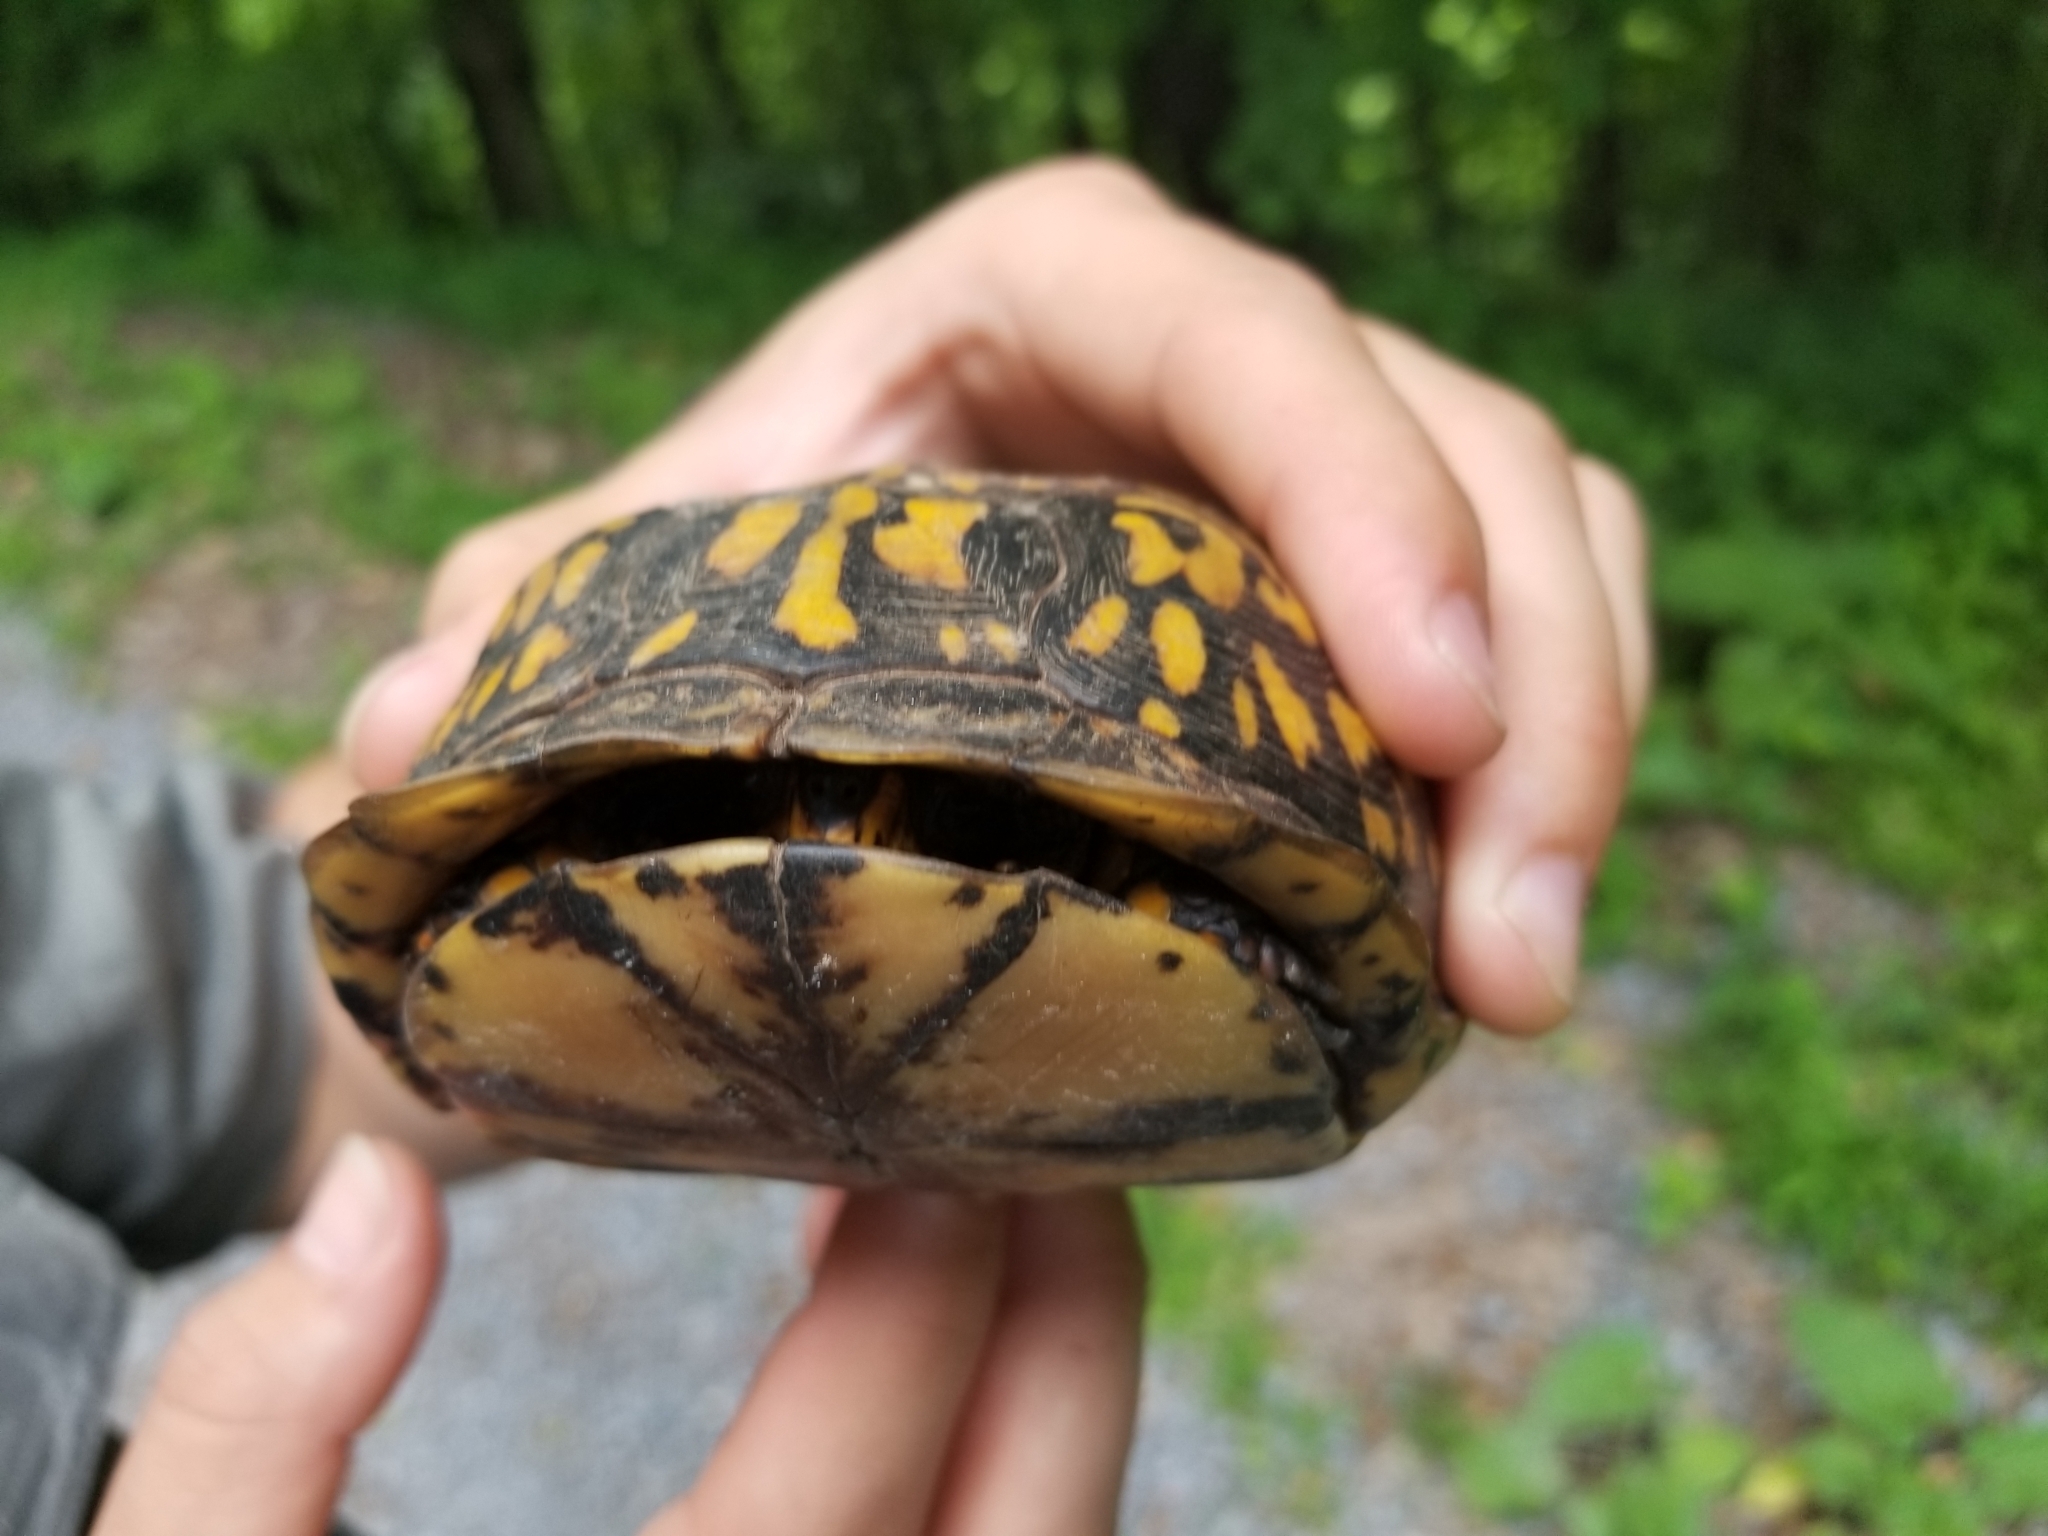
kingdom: Animalia
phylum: Chordata
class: Testudines
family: Emydidae
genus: Terrapene
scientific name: Terrapene carolina
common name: Common box turtle
